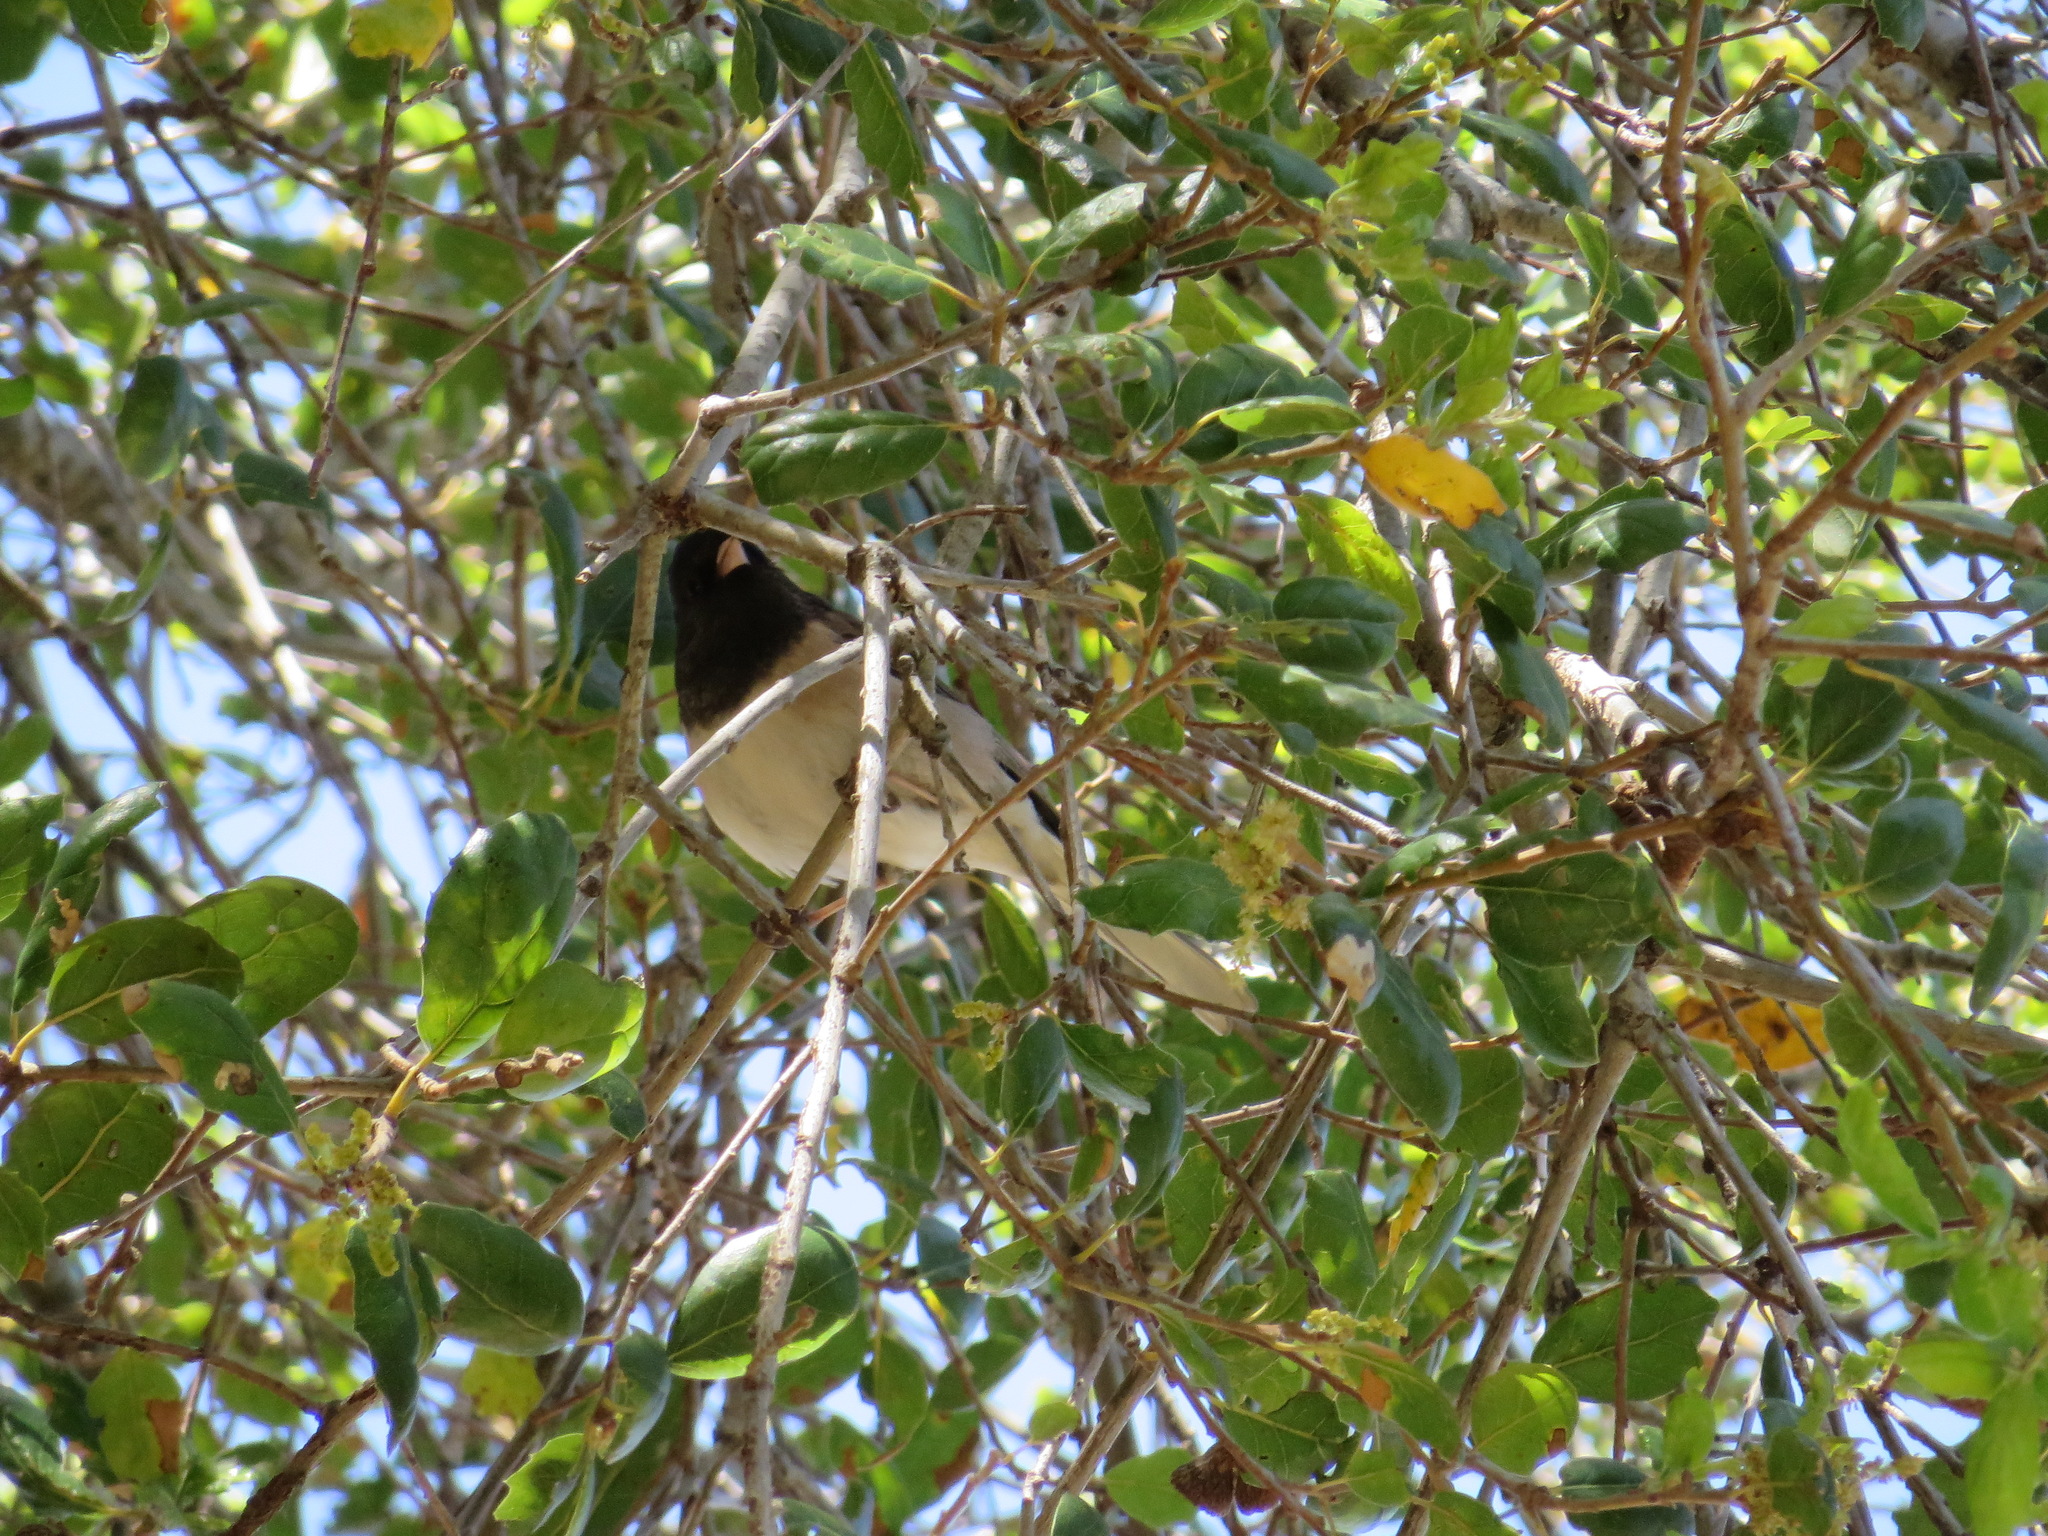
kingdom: Animalia
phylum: Chordata
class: Aves
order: Passeriformes
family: Passerellidae
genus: Junco
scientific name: Junco hyemalis
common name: Dark-eyed junco
